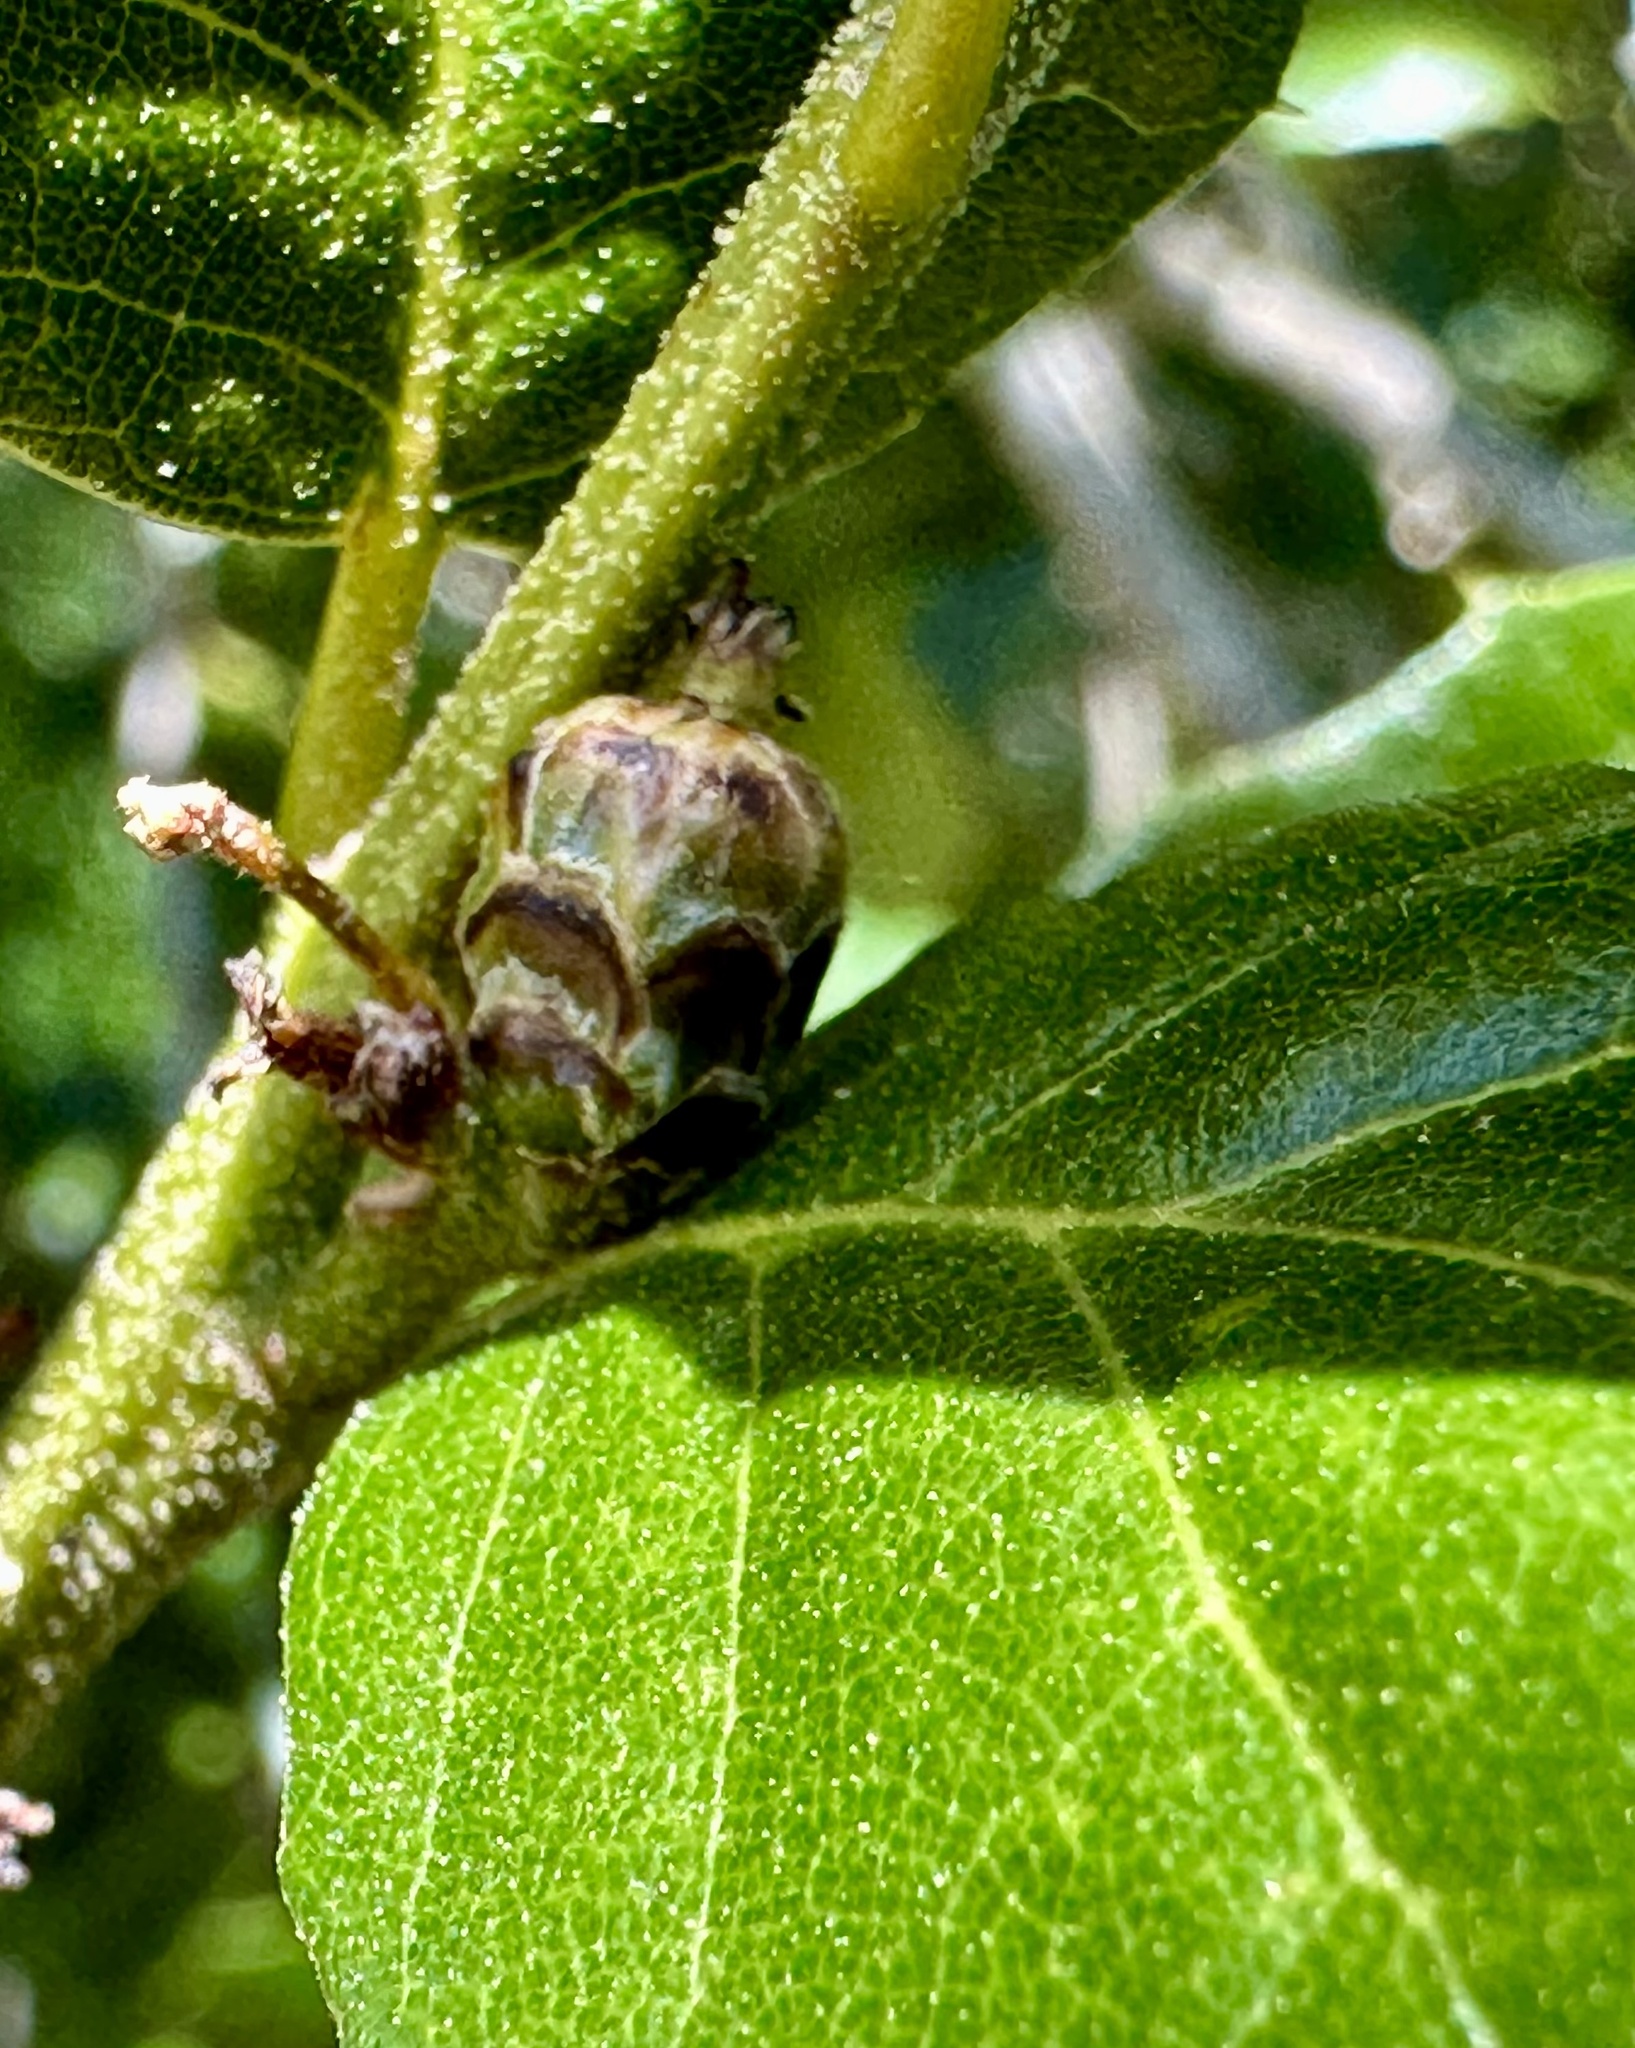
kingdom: Plantae
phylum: Tracheophyta
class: Magnoliopsida
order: Fagales
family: Fagaceae
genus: Quercus
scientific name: Quercus agrifolia
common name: California live oak
